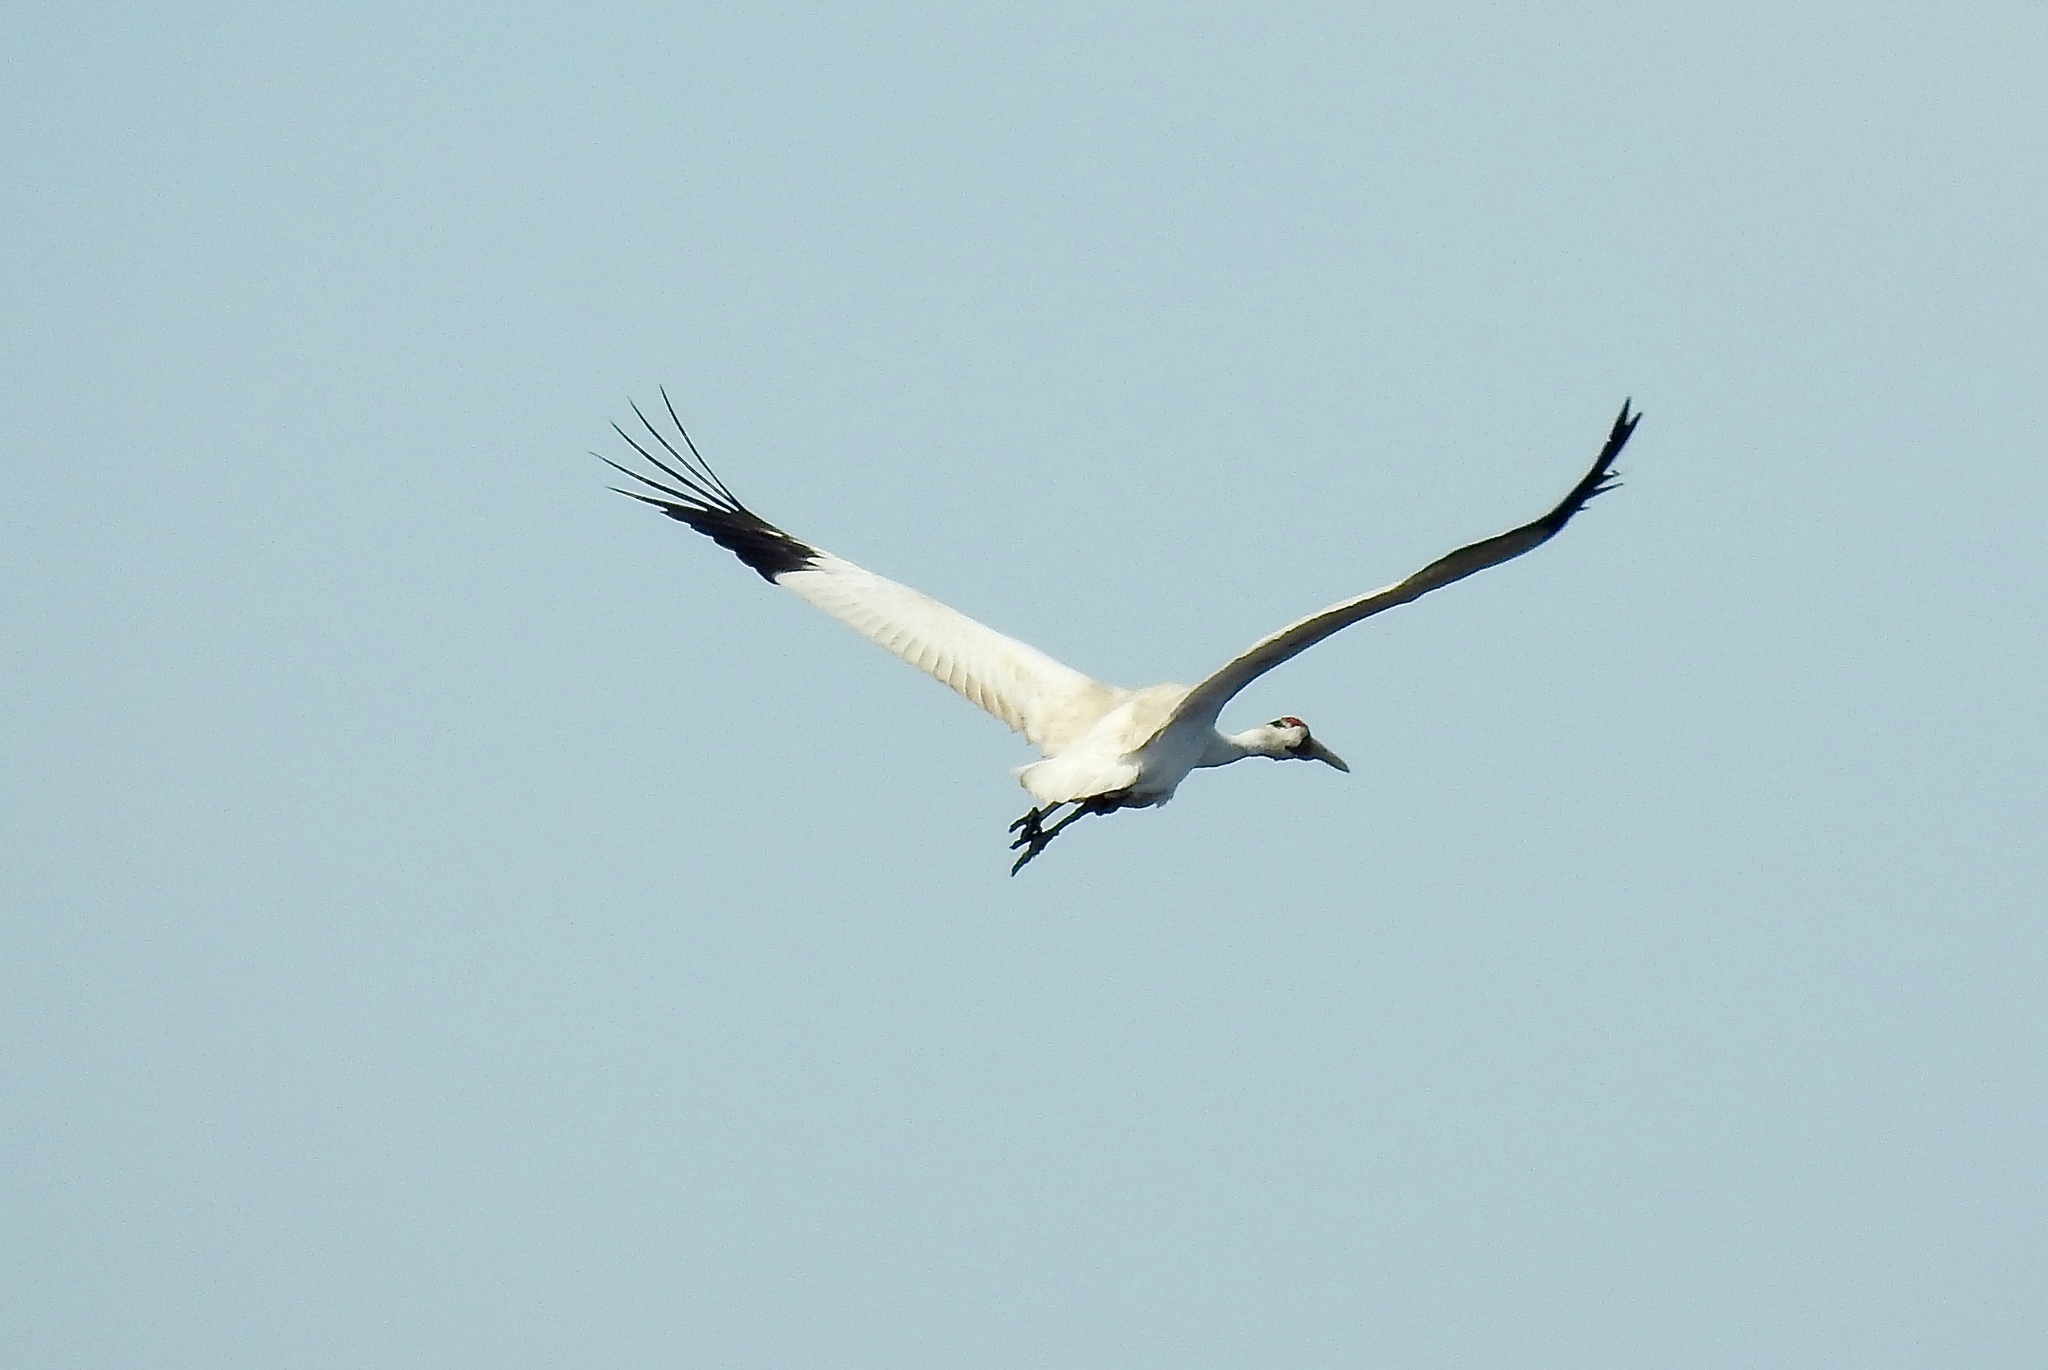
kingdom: Animalia
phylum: Chordata
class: Aves
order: Gruiformes
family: Gruidae
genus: Grus
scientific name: Grus americana
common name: Whooping crane
